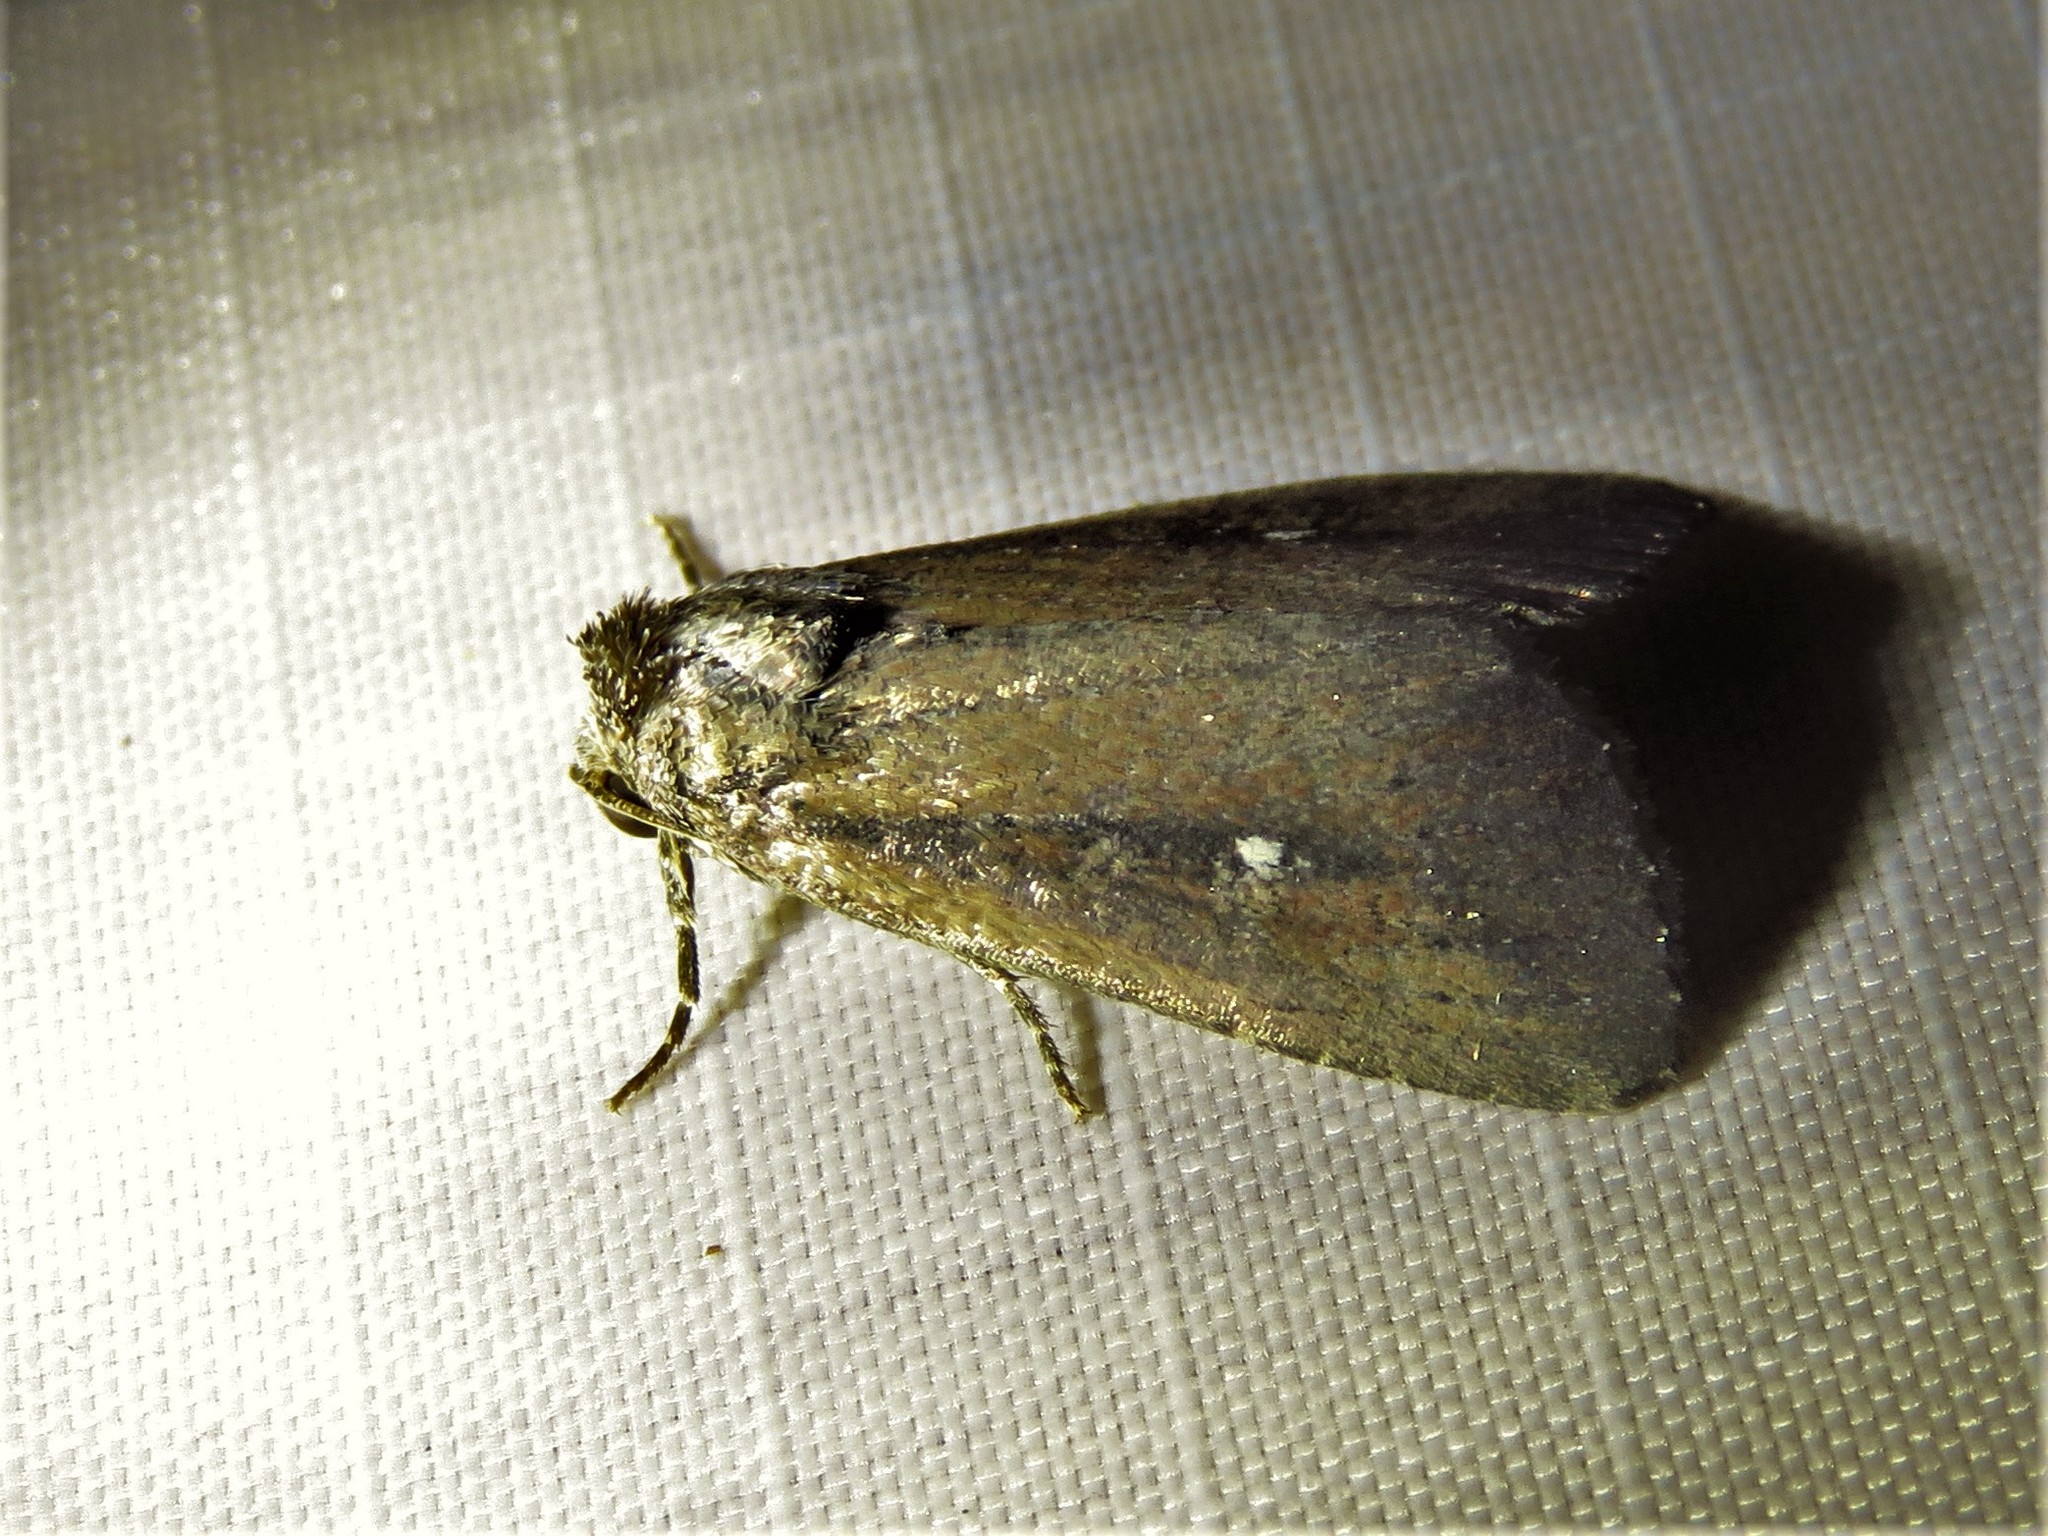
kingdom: Animalia
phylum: Arthropoda
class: Insecta
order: Lepidoptera
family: Noctuidae
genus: Condica
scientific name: Condica videns
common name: White-dotted groundling
